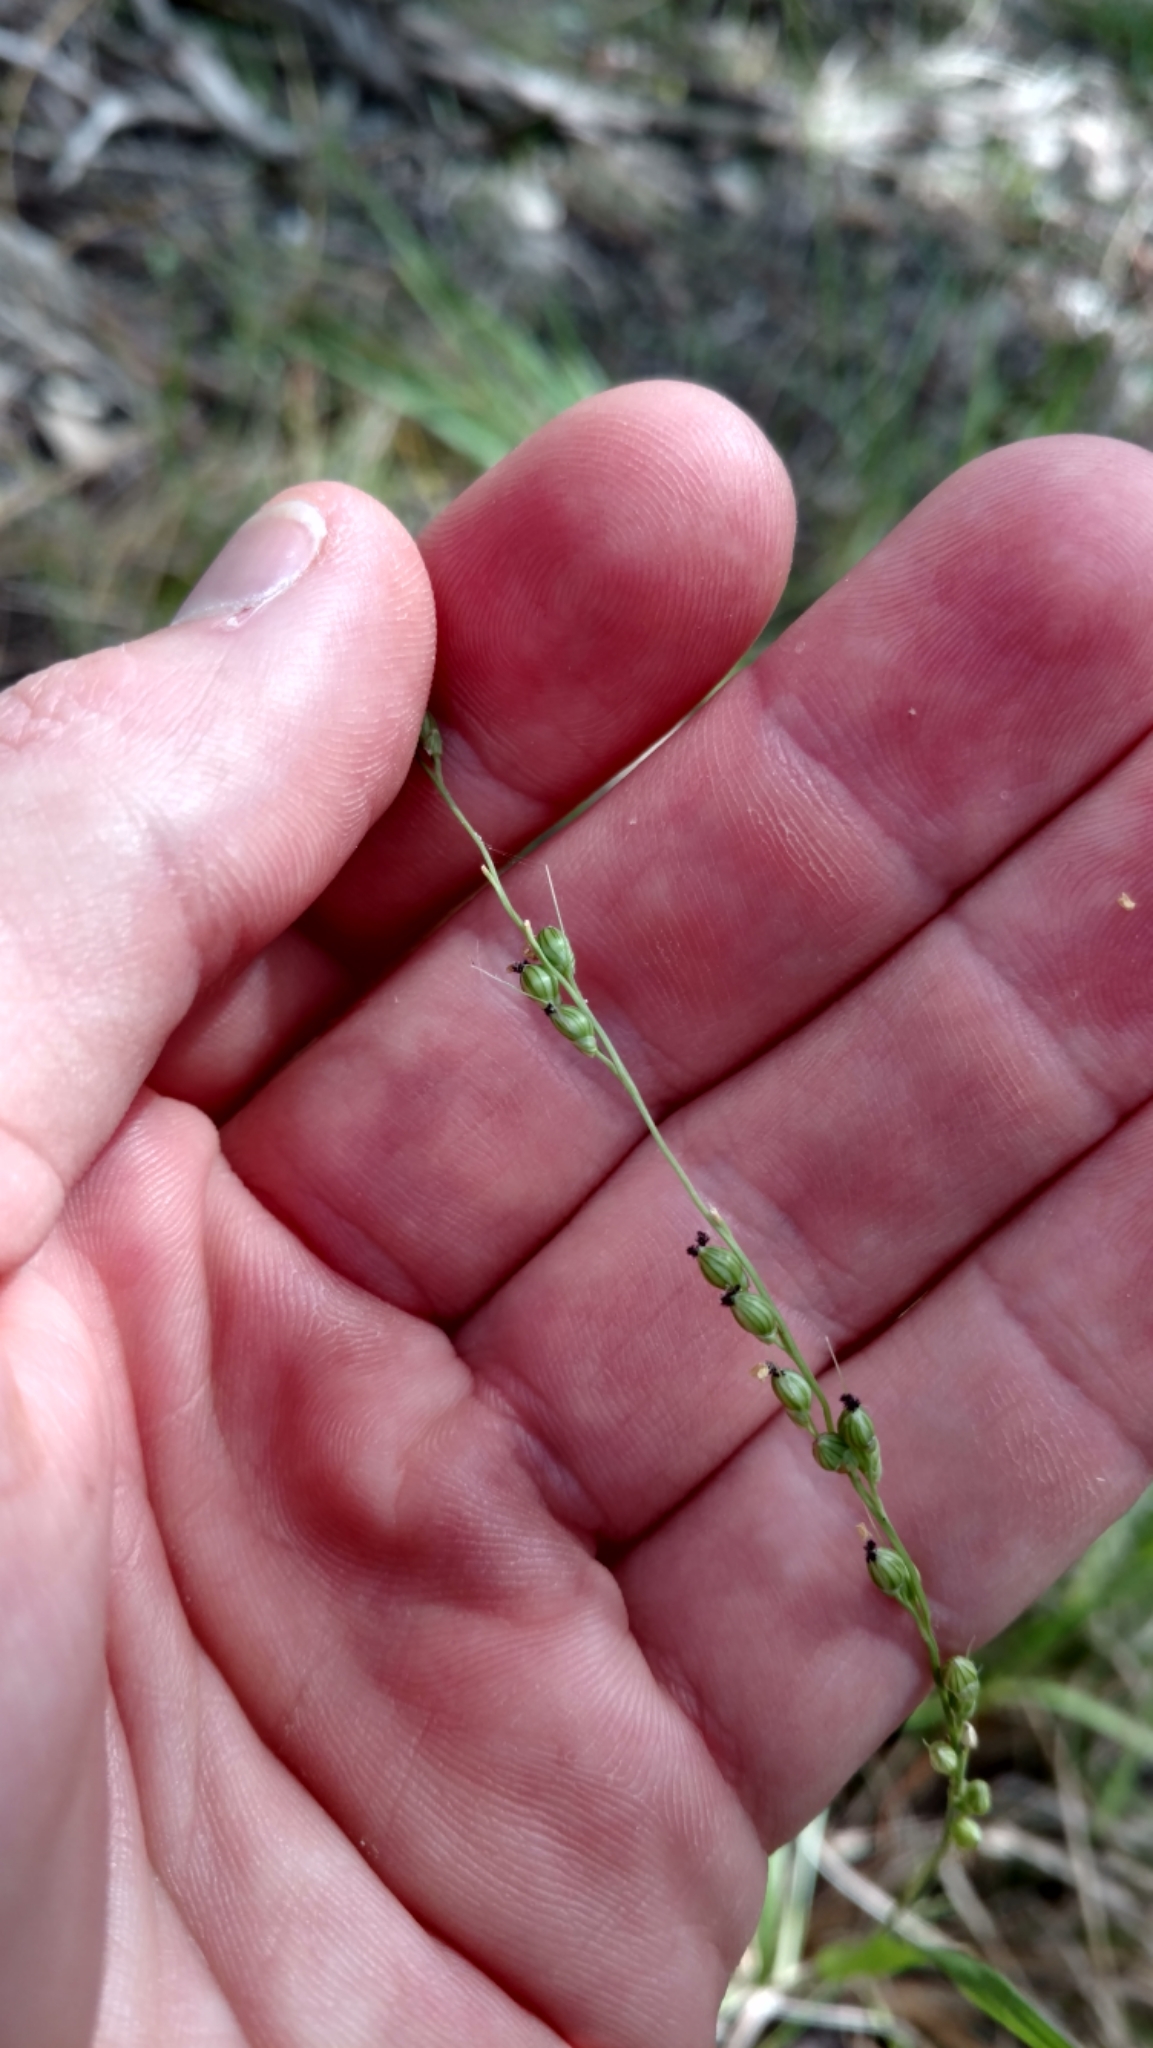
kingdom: Plantae
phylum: Tracheophyta
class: Liliopsida
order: Poales
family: Poaceae
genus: Setaria
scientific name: Setaria reverchonii
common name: Reverchon's bristle grass
